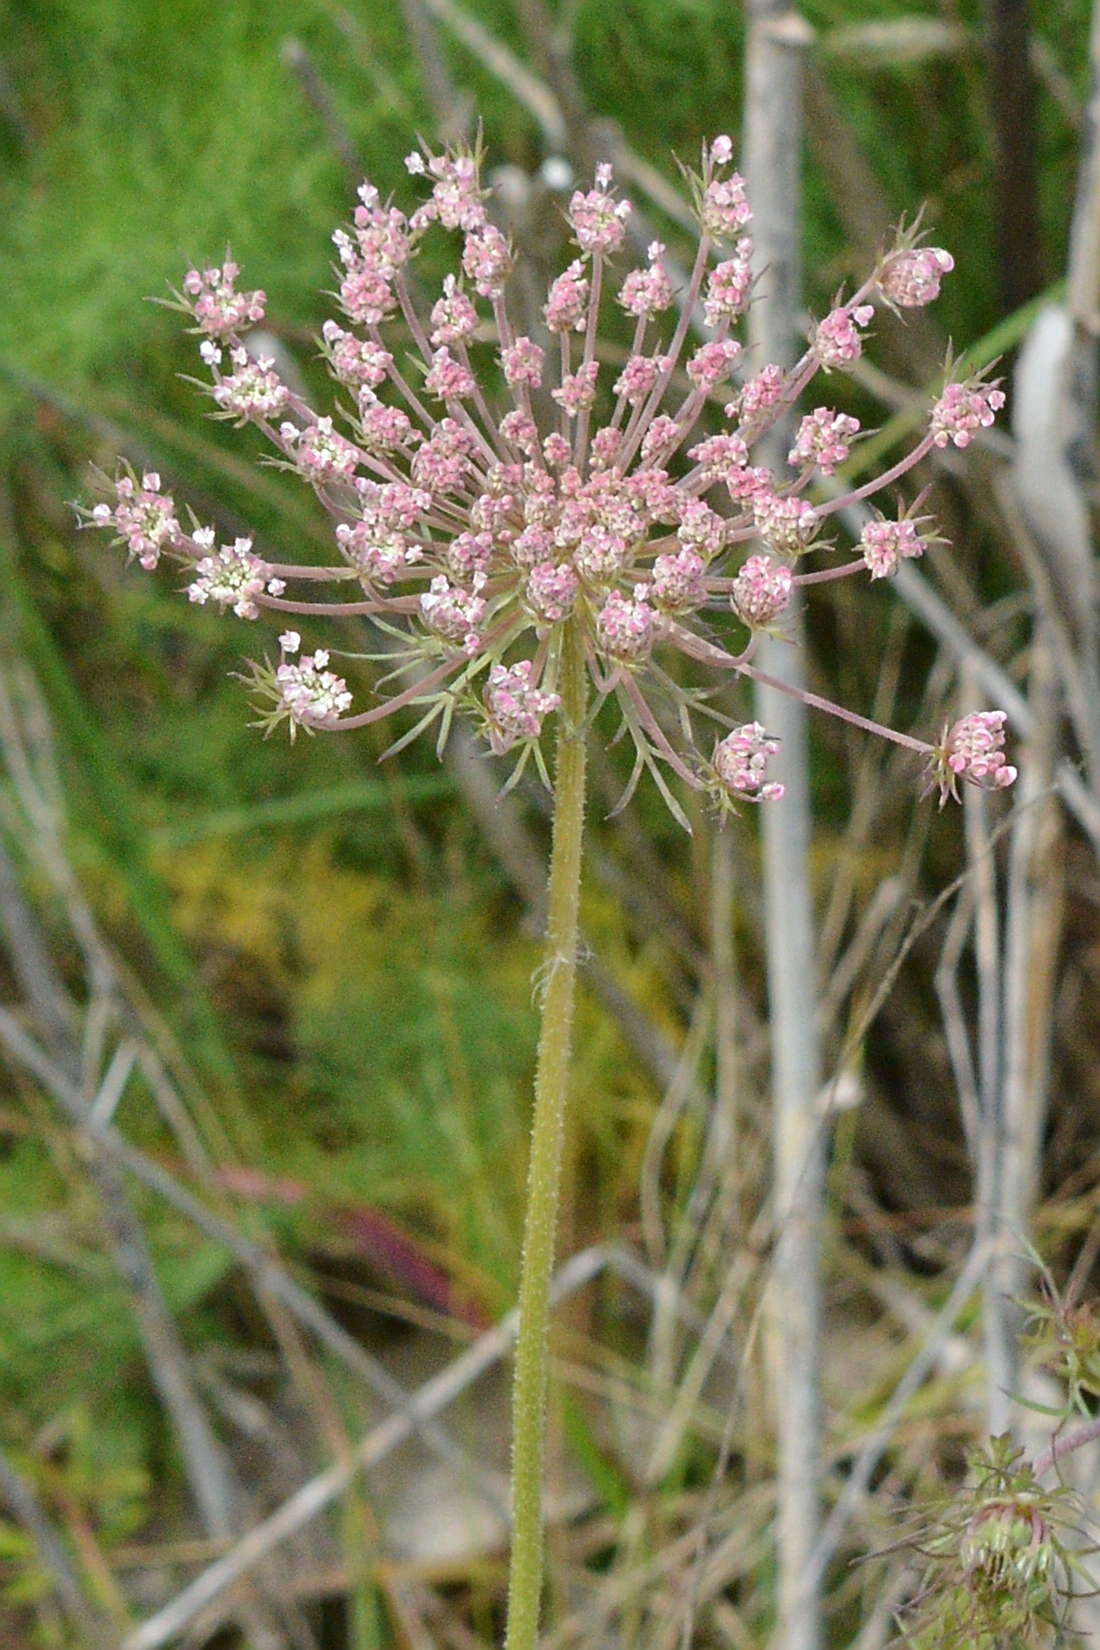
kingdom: Plantae
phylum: Tracheophyta
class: Magnoliopsida
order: Apiales
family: Apiaceae
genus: Daucus
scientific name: Daucus carota
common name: Wild carrot
